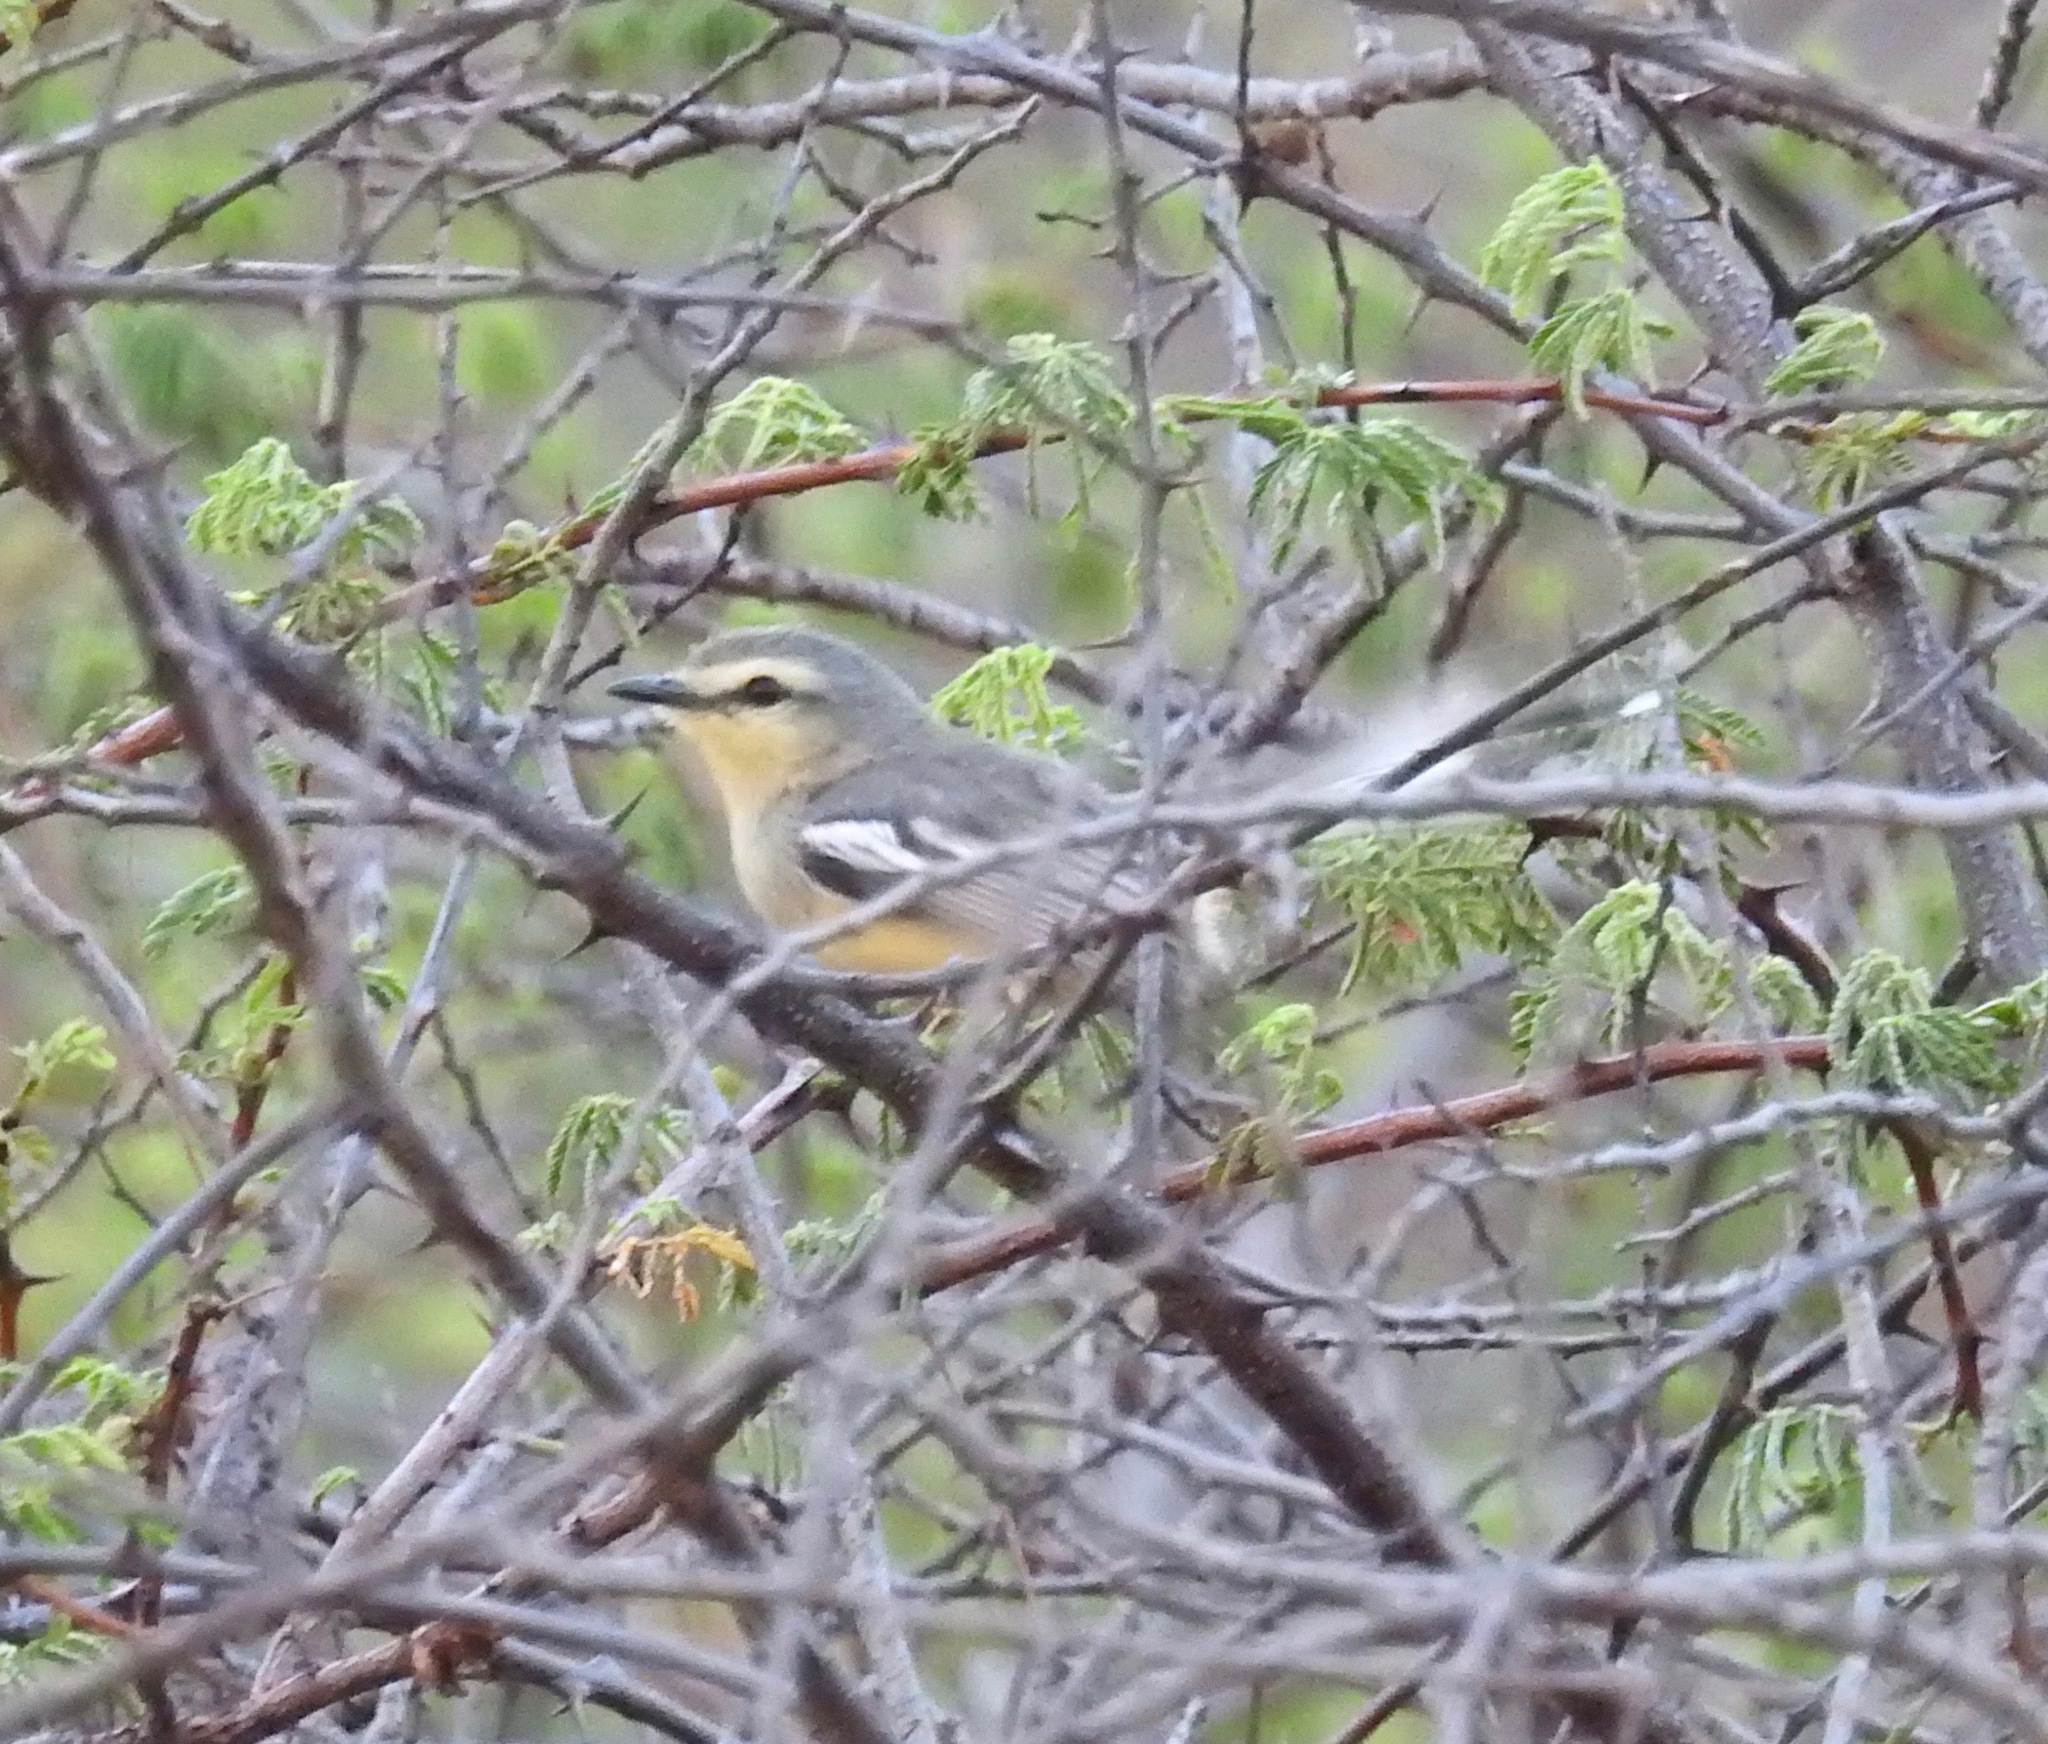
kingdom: Animalia
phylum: Chordata
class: Aves
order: Passeriformes
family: Tyrannidae
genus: Stigmatura
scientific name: Stigmatura budytoides
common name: Greater wagtail-tyrant
